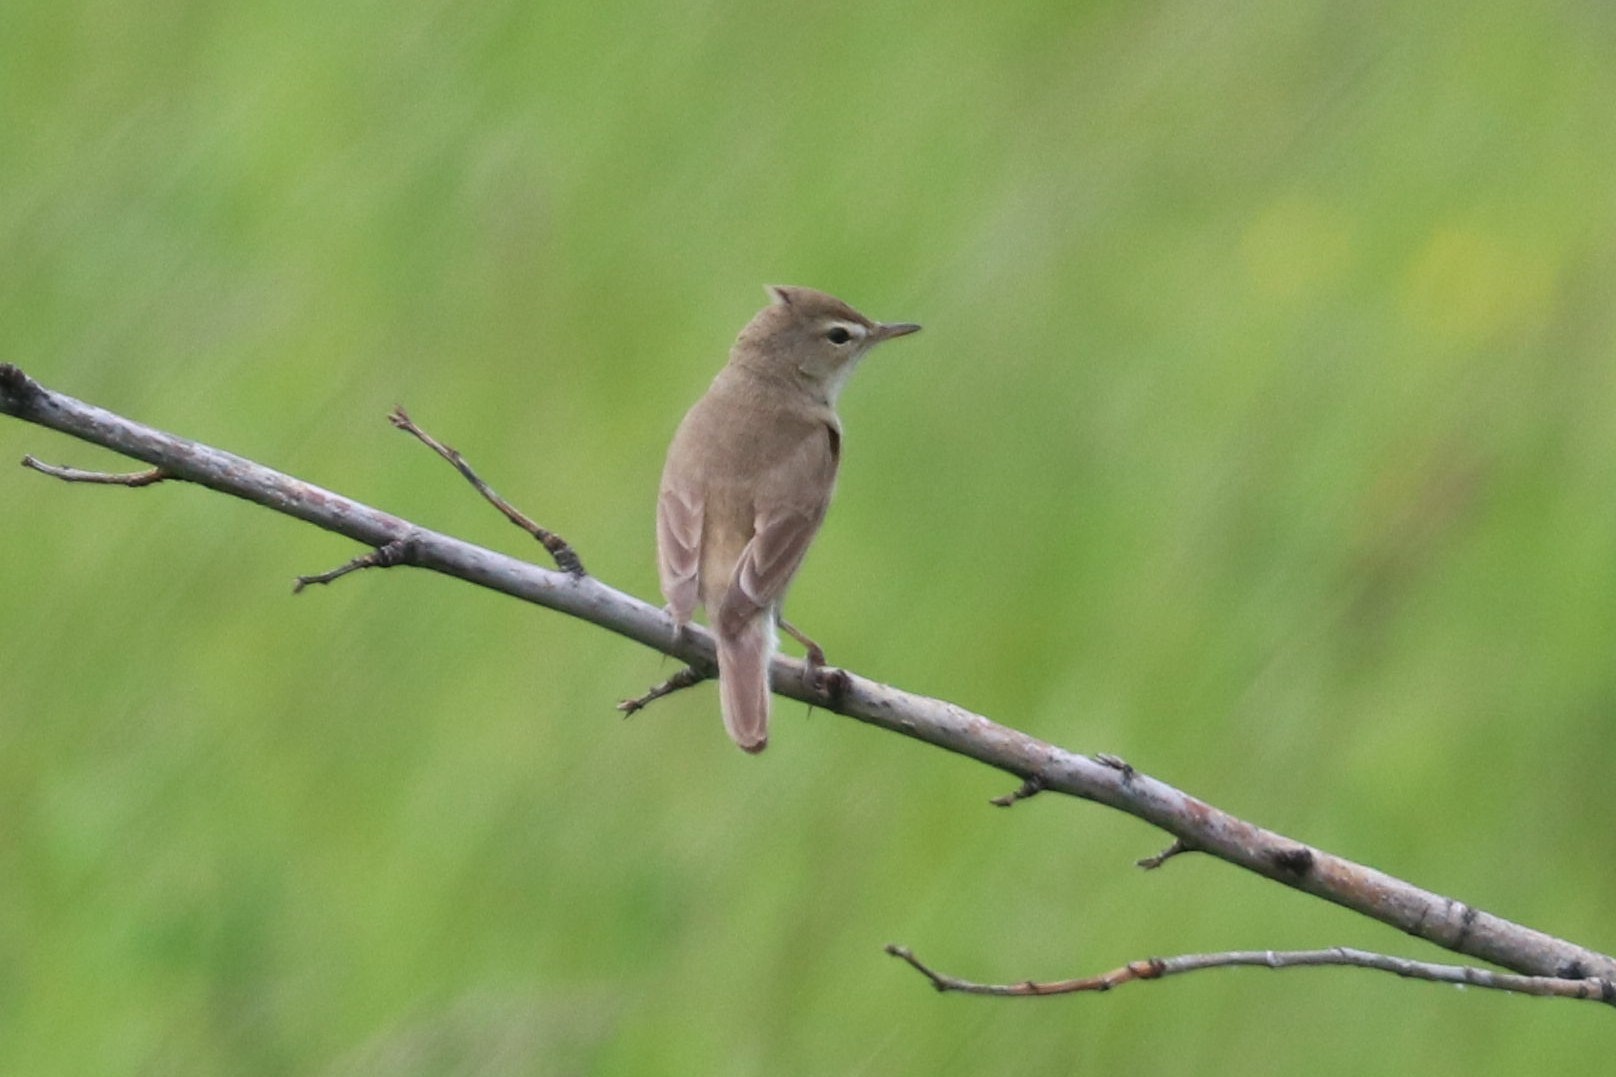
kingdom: Animalia
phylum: Chordata
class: Aves
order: Passeriformes
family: Acrocephalidae
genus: Iduna
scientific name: Iduna caligata
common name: Booted warbler
